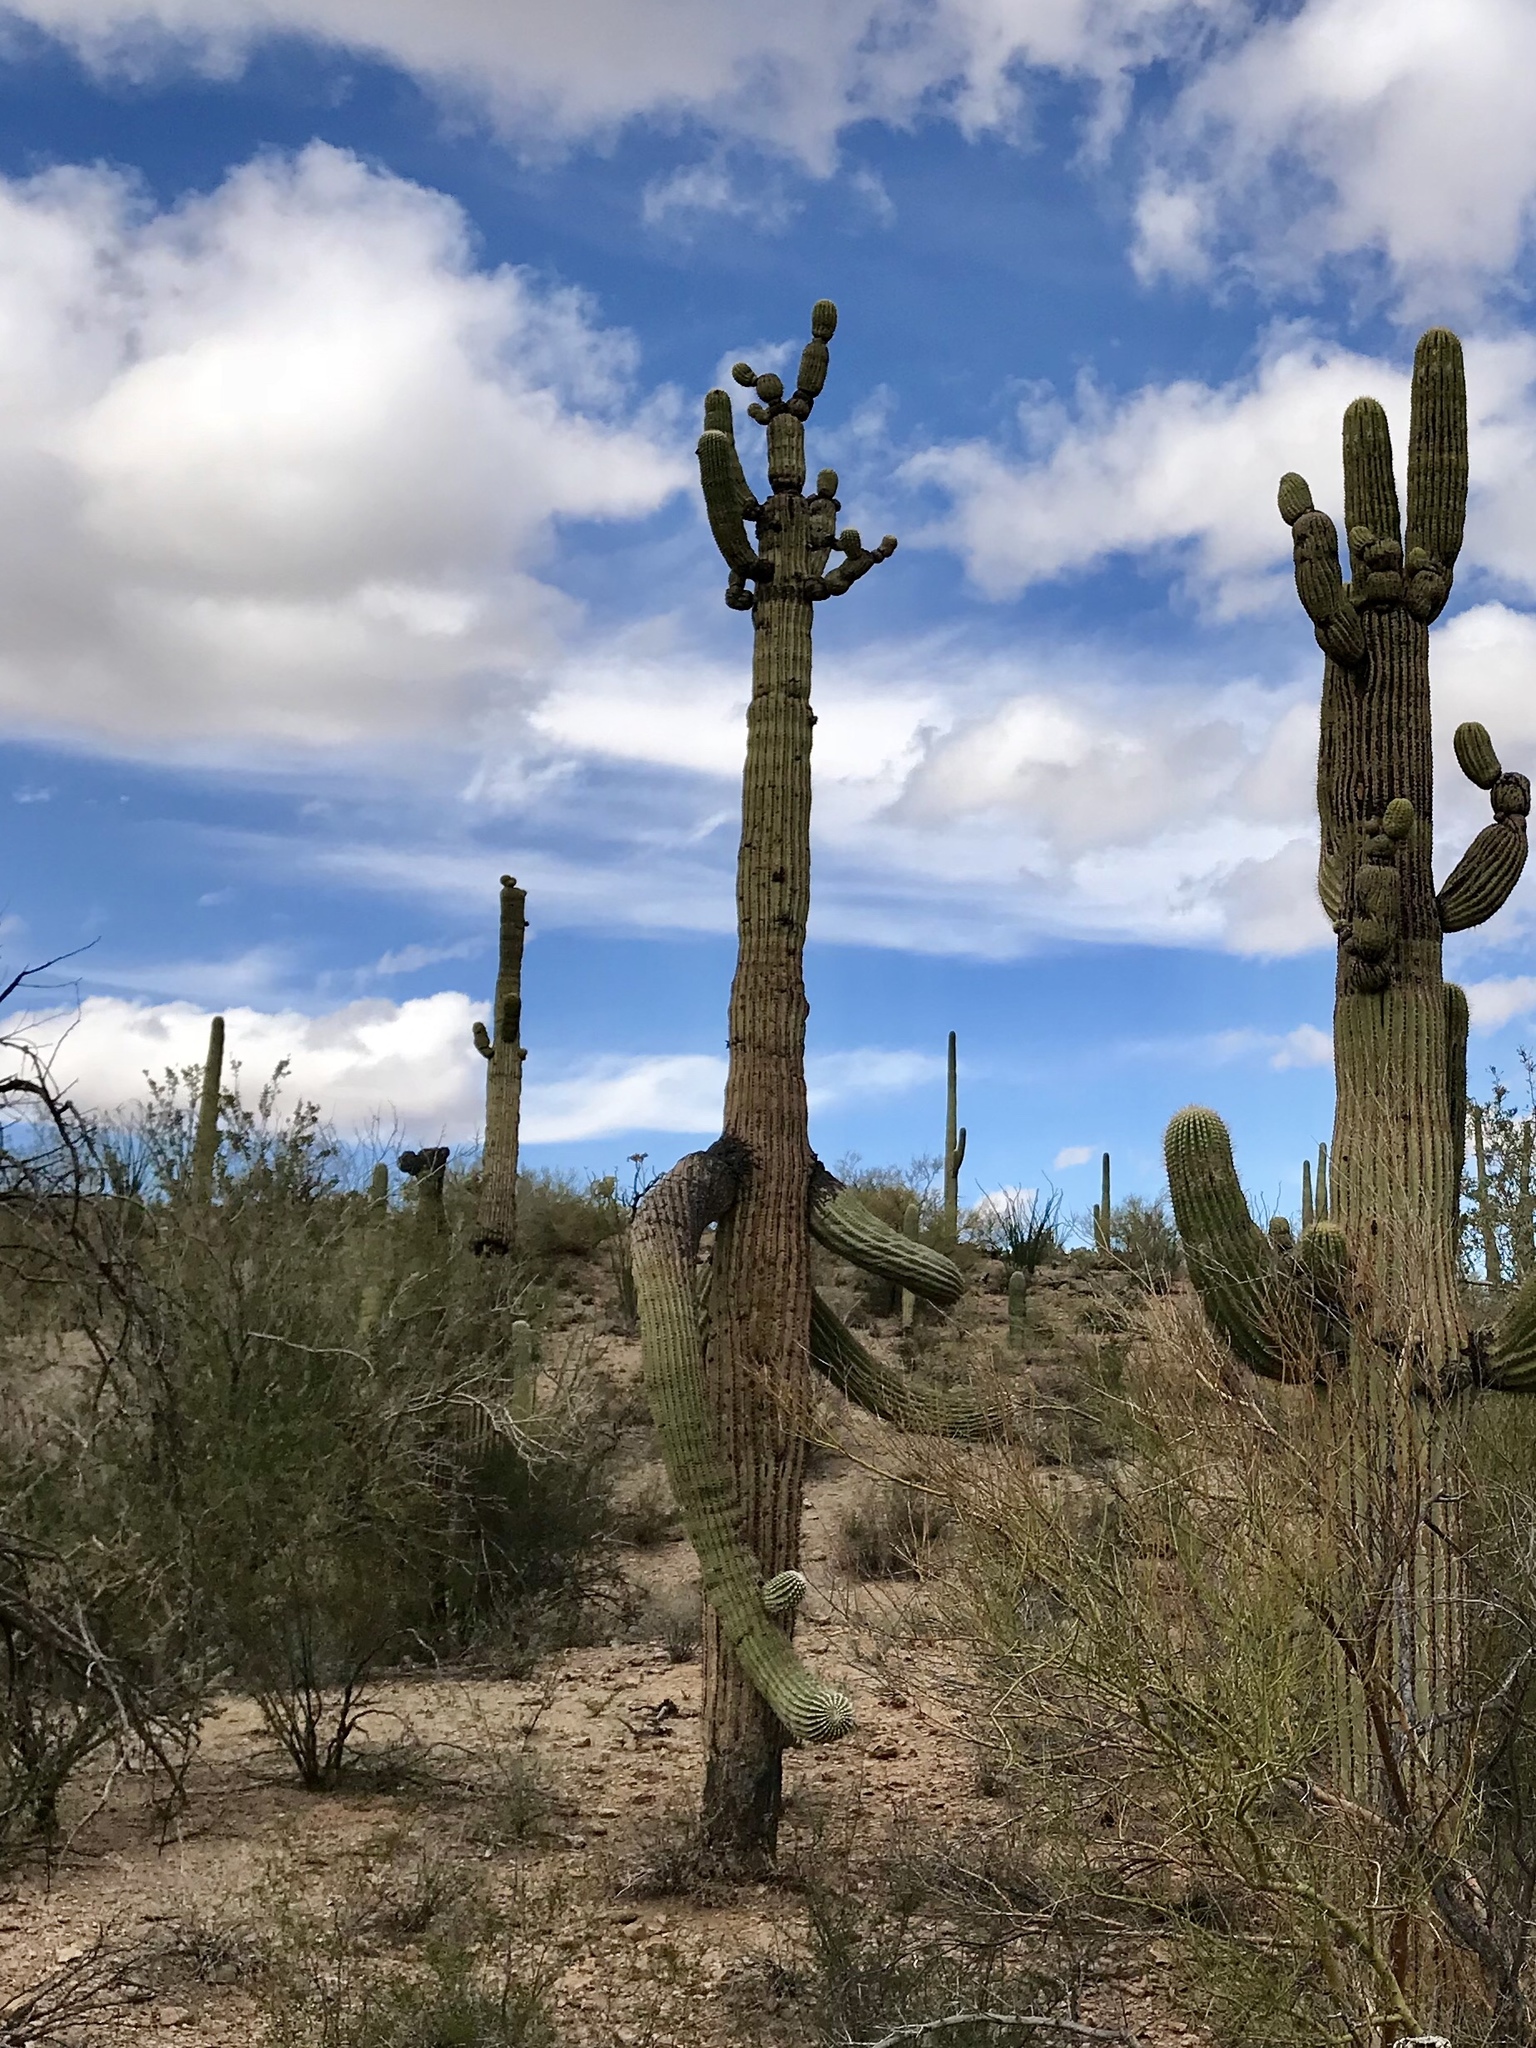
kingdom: Plantae
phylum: Tracheophyta
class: Magnoliopsida
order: Caryophyllales
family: Cactaceae
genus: Carnegiea
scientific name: Carnegiea gigantea
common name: Saguaro
